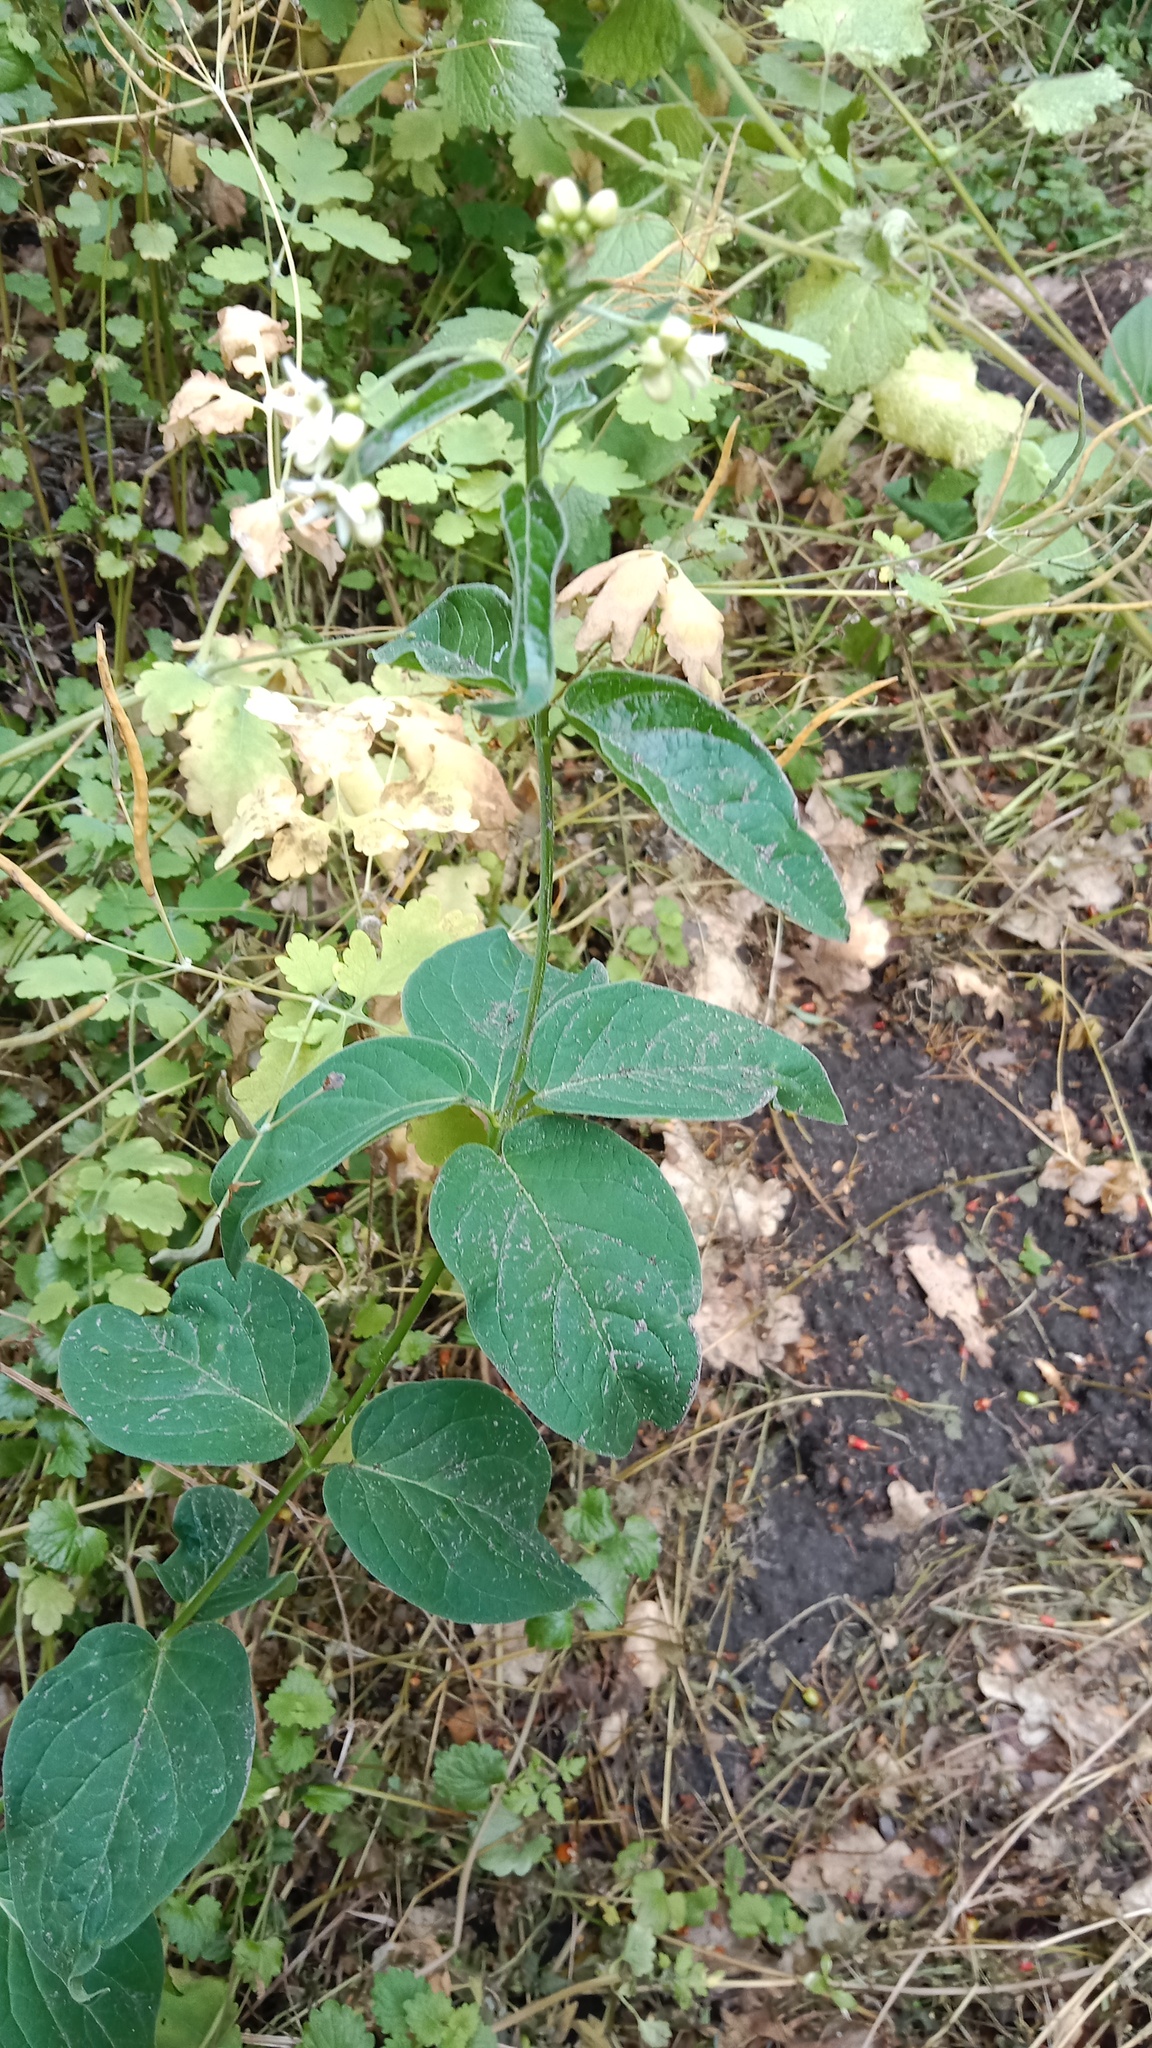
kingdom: Plantae
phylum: Tracheophyta
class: Magnoliopsida
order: Gentianales
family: Apocynaceae
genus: Vincetoxicum
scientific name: Vincetoxicum hirundinaria
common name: White swallowwort
